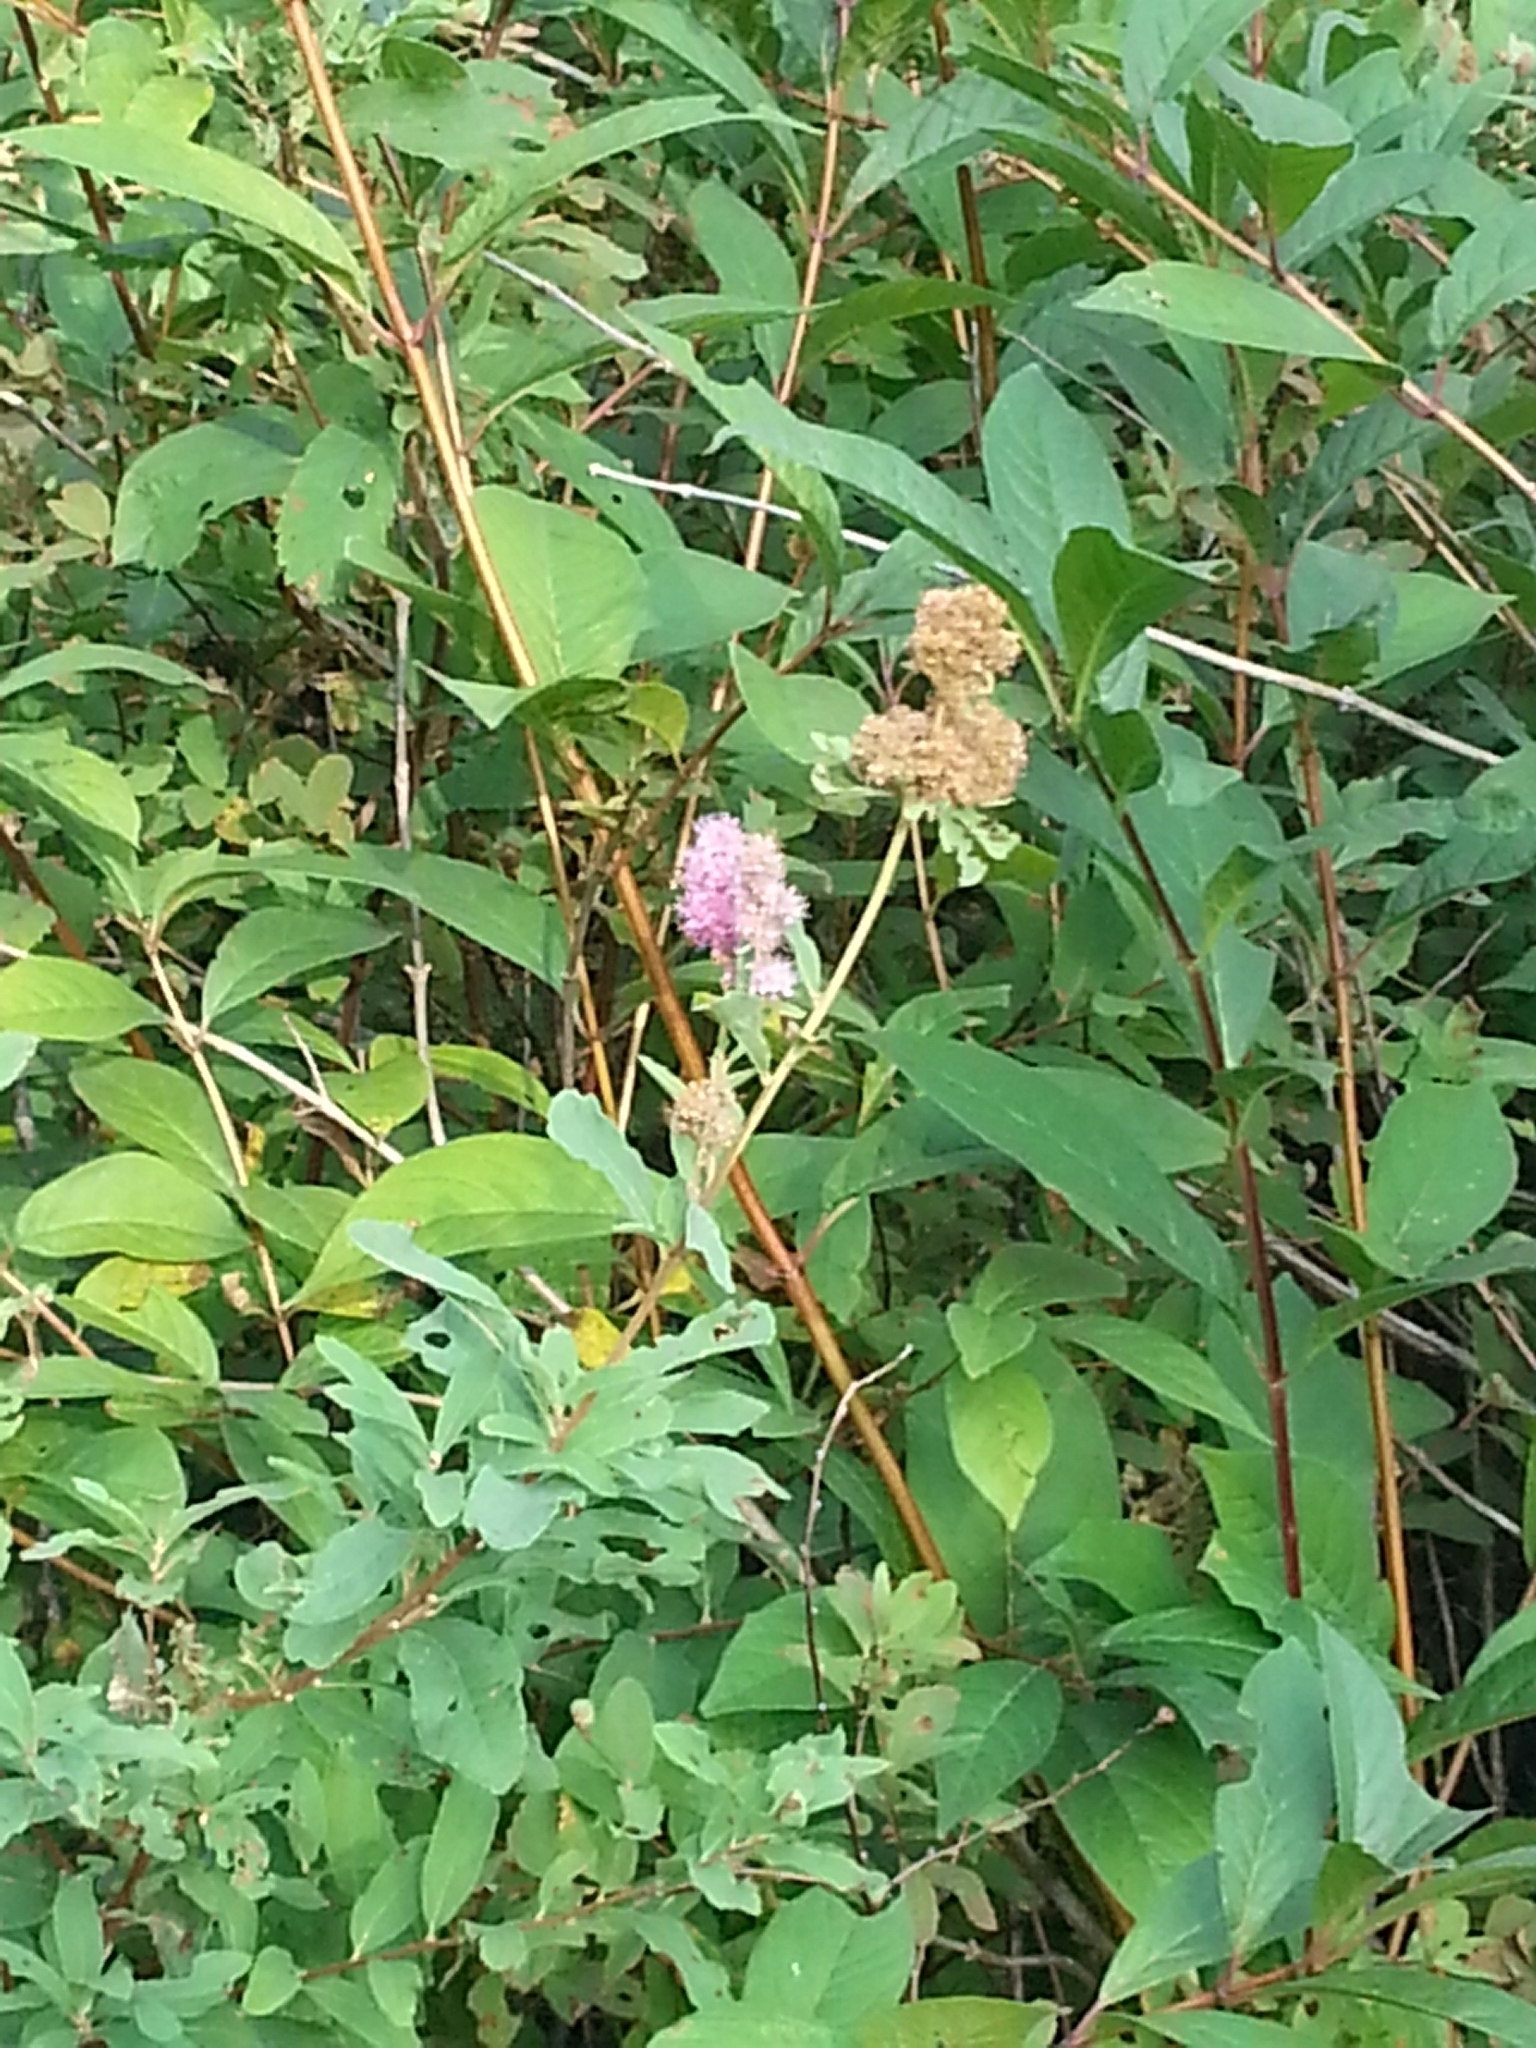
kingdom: Plantae
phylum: Tracheophyta
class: Magnoliopsida
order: Fagales
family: Myricaceae
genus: Myrica
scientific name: Myrica gale
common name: Sweet gale
